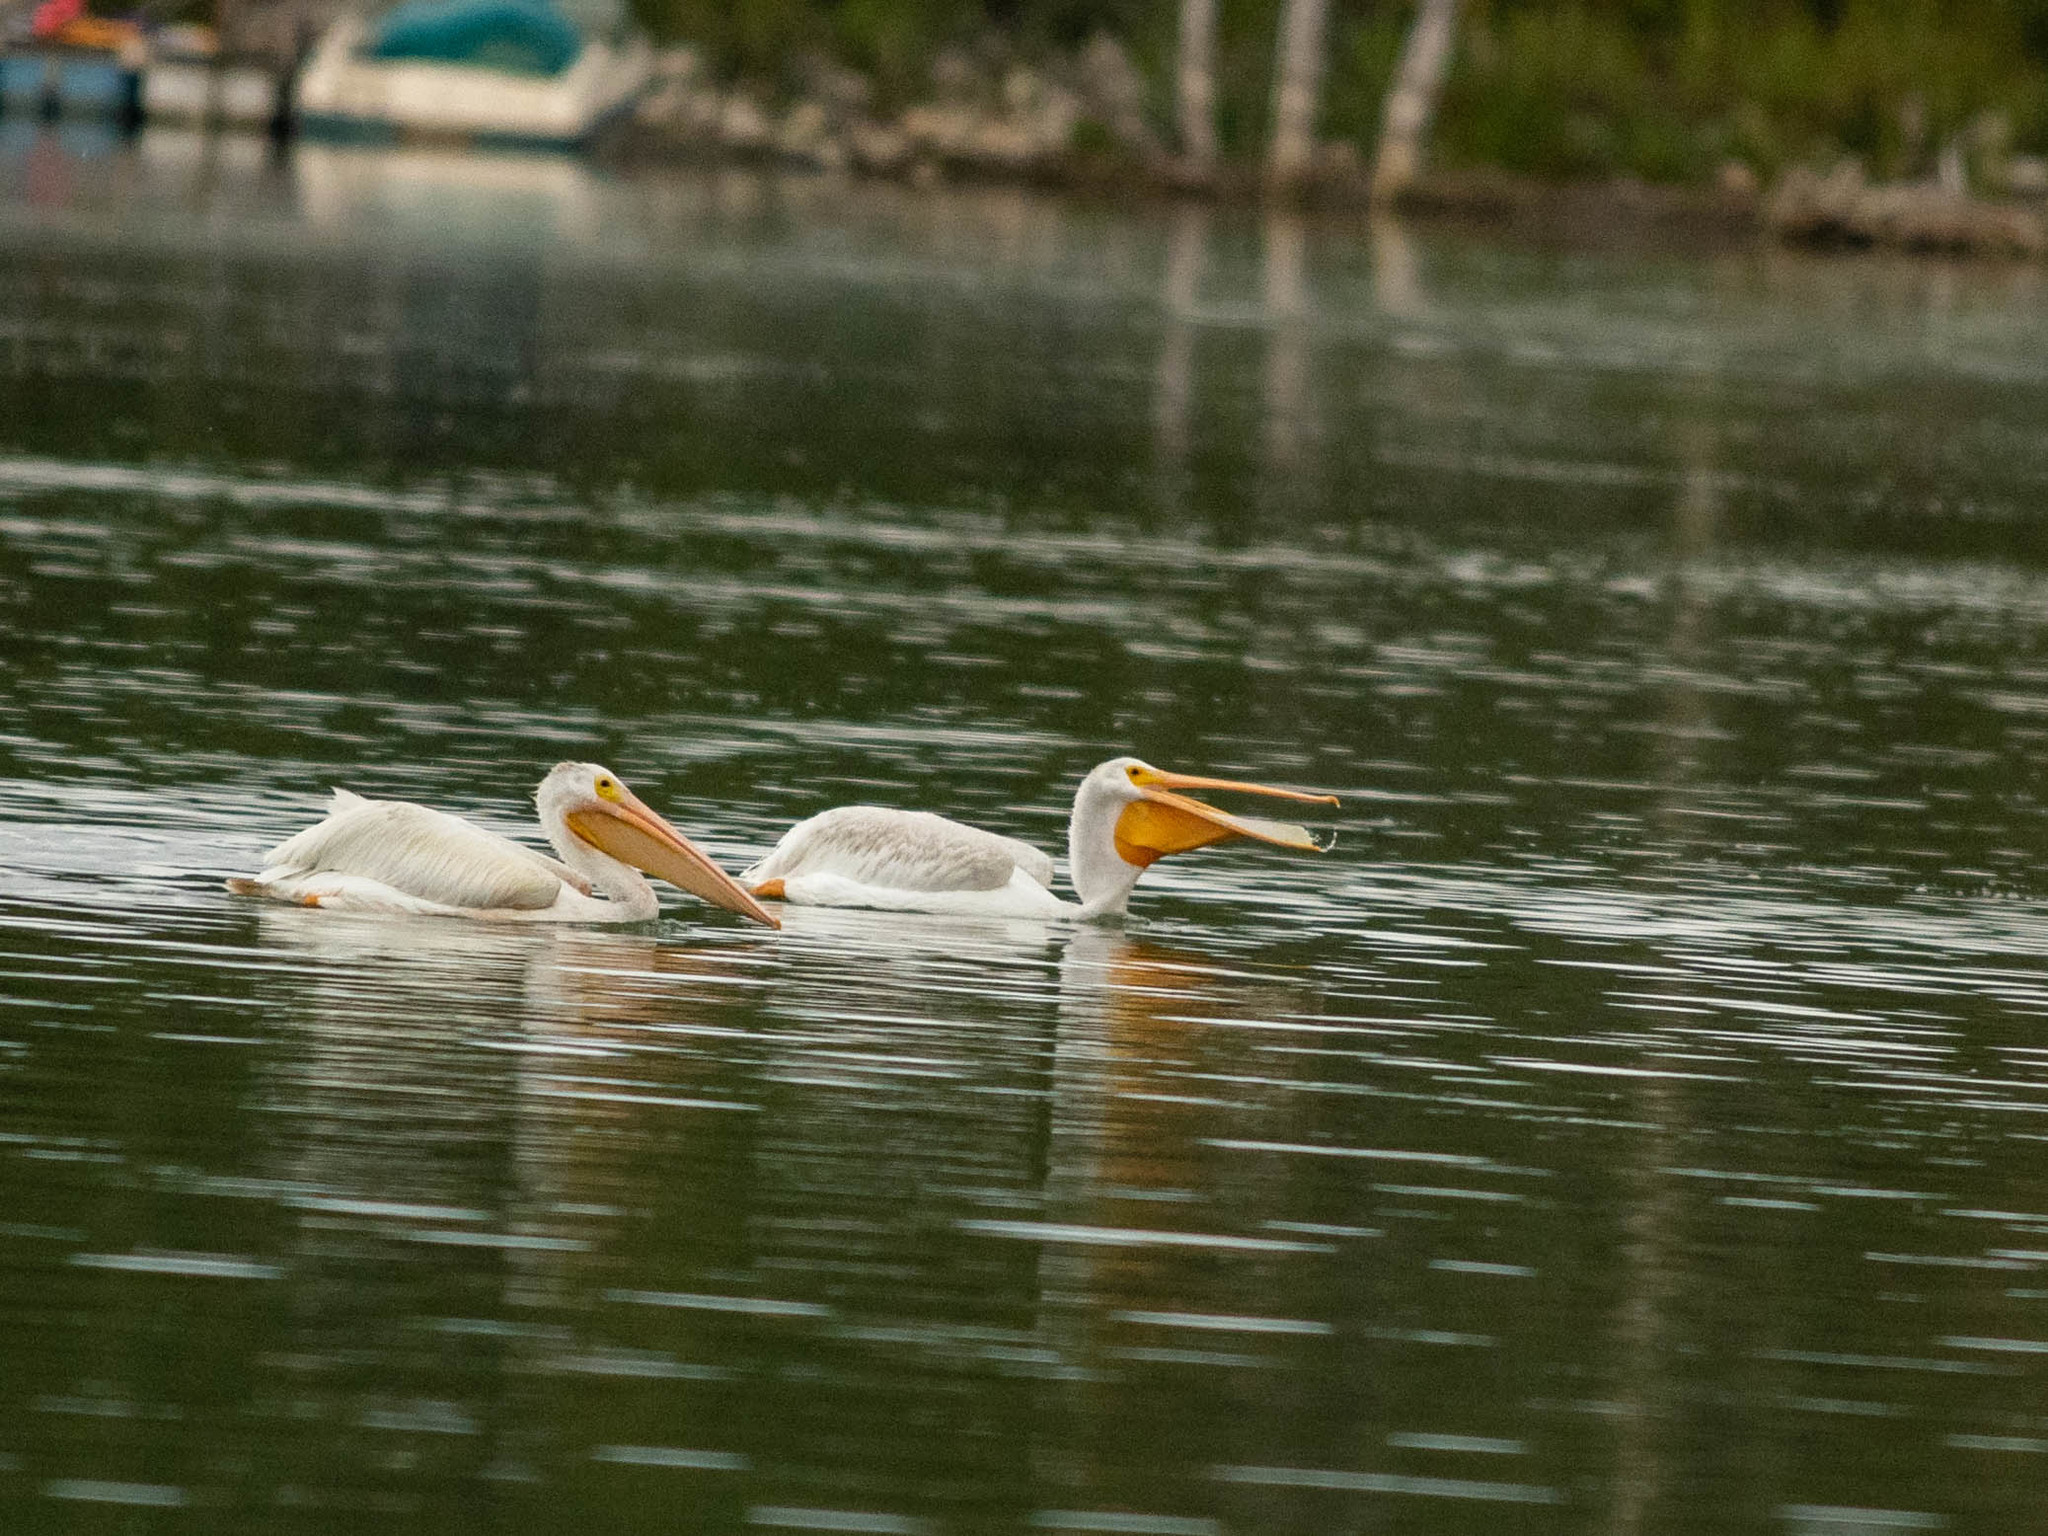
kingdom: Animalia
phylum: Chordata
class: Aves
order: Pelecaniformes
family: Pelecanidae
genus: Pelecanus
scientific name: Pelecanus erythrorhynchos
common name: American white pelican
